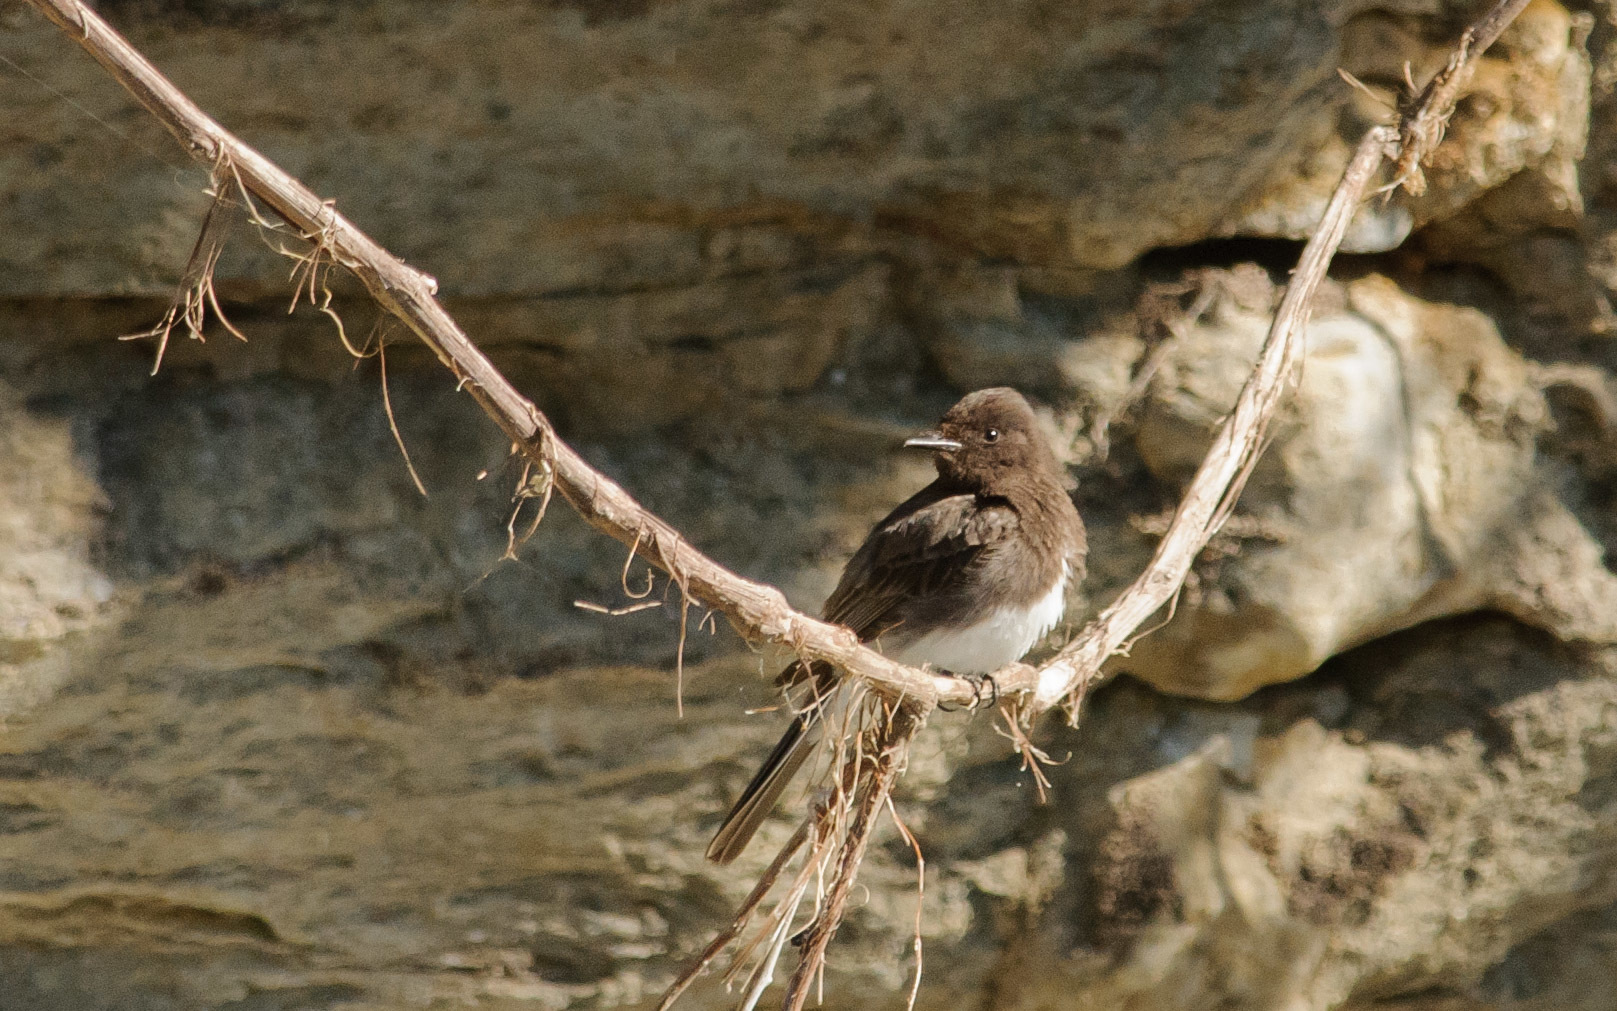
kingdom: Animalia
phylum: Chordata
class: Aves
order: Passeriformes
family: Tyrannidae
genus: Sayornis
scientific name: Sayornis nigricans
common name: Black phoebe
